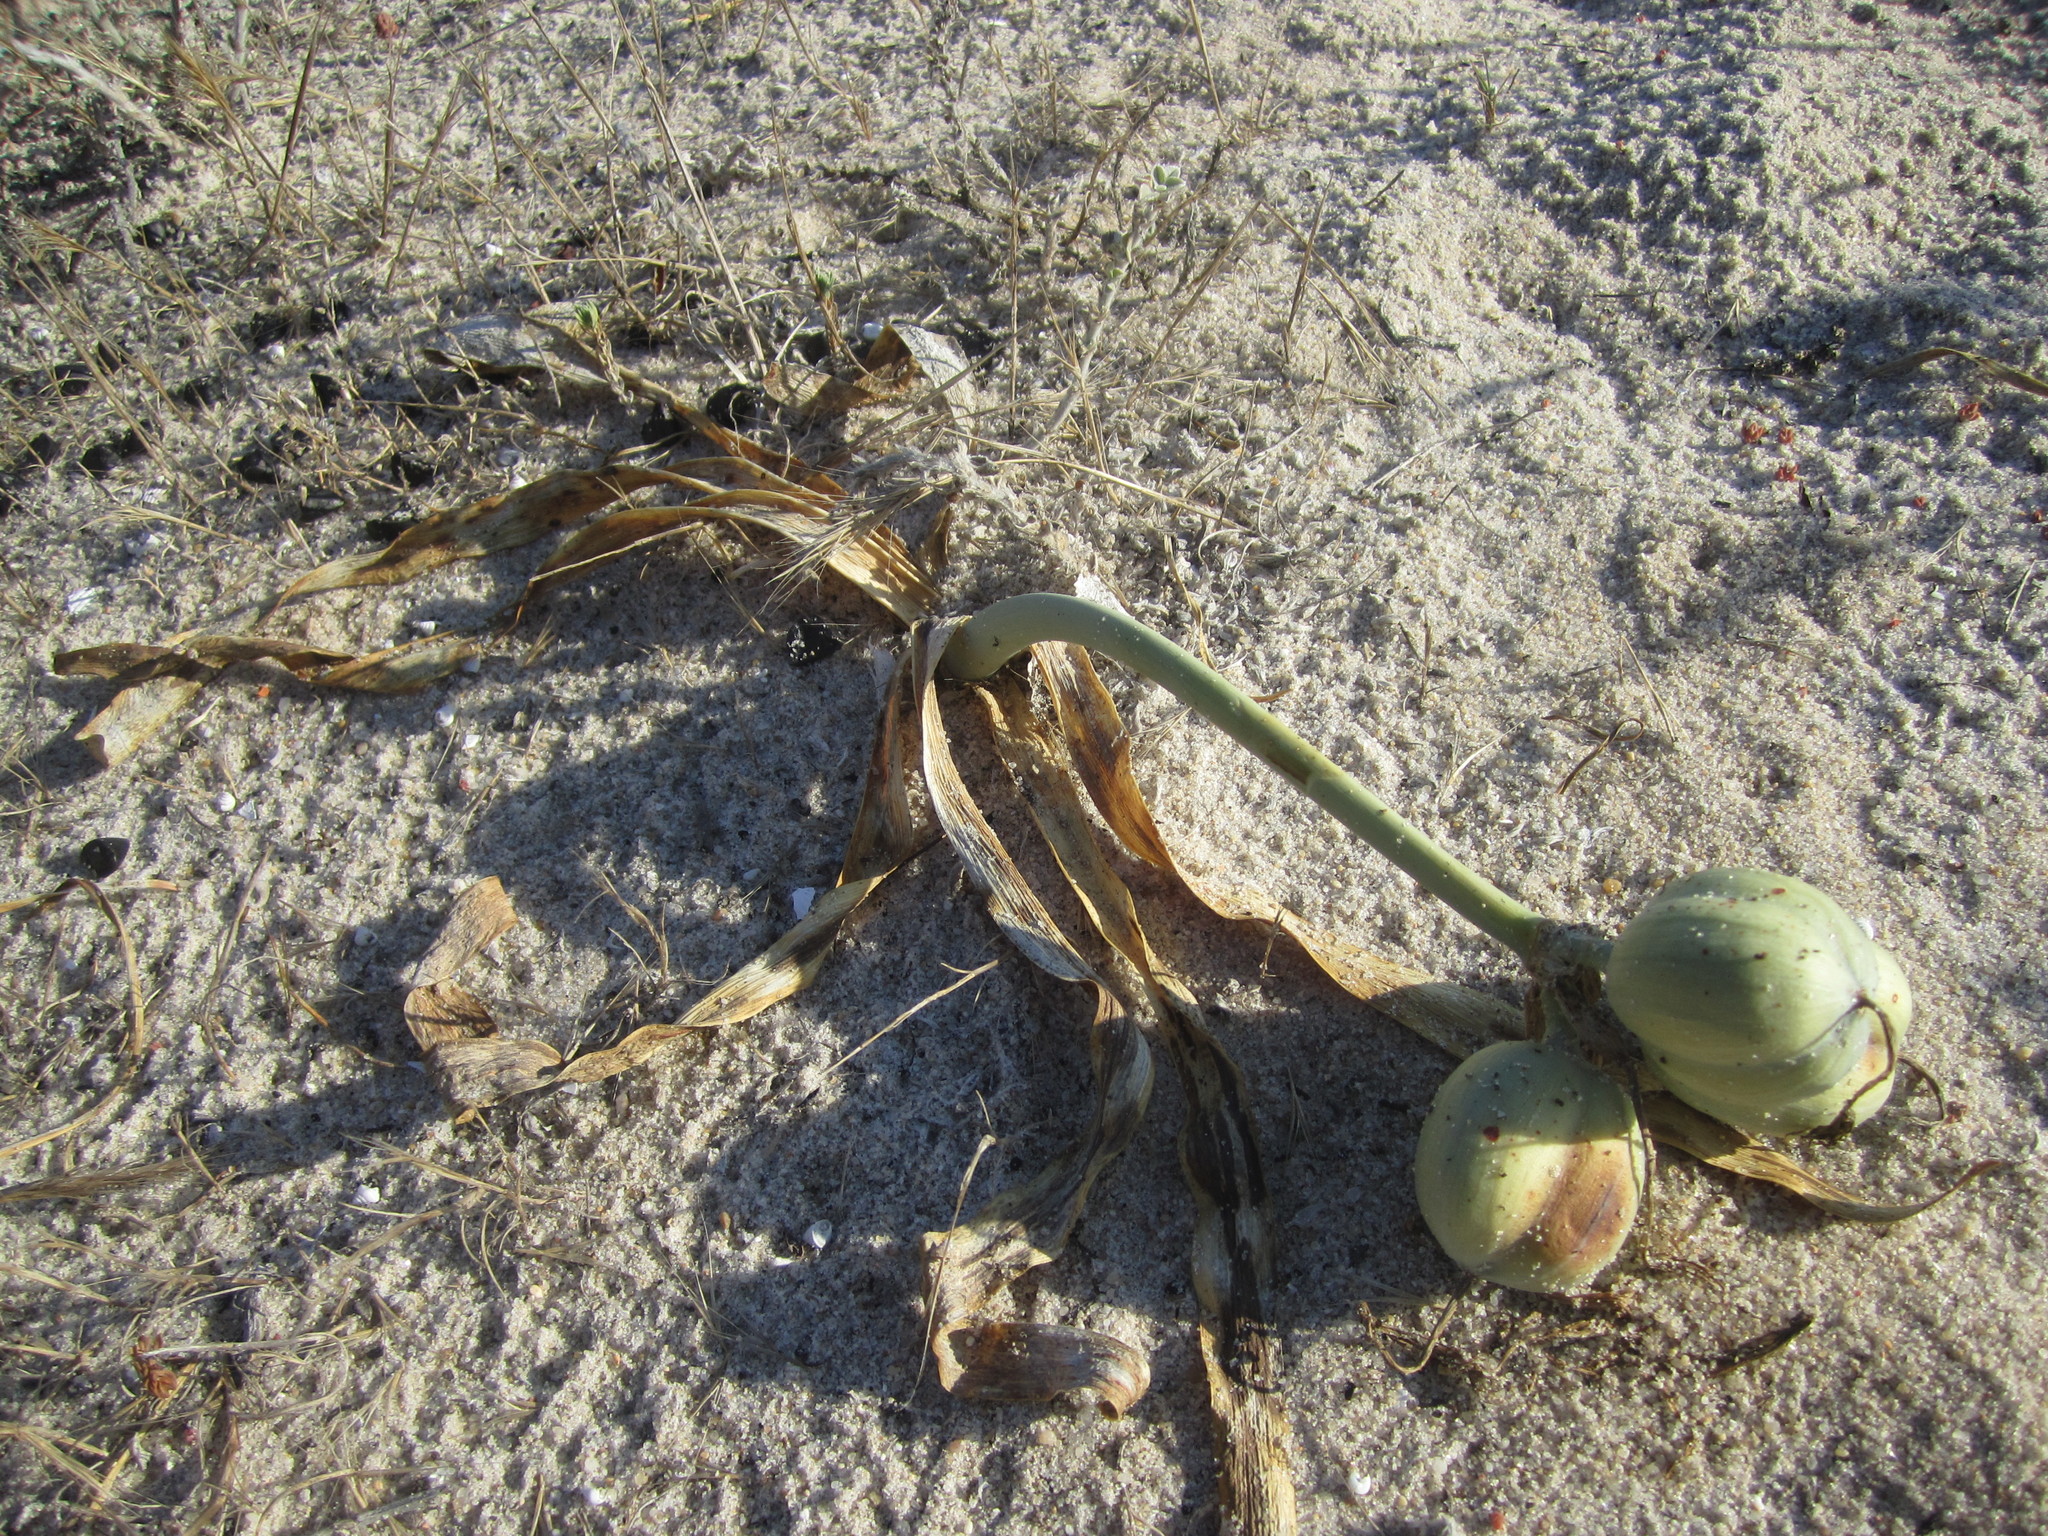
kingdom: Plantae
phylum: Tracheophyta
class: Liliopsida
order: Asparagales
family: Amaryllidaceae
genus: Pancratium
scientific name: Pancratium maritimum
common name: Sea-daffodil
